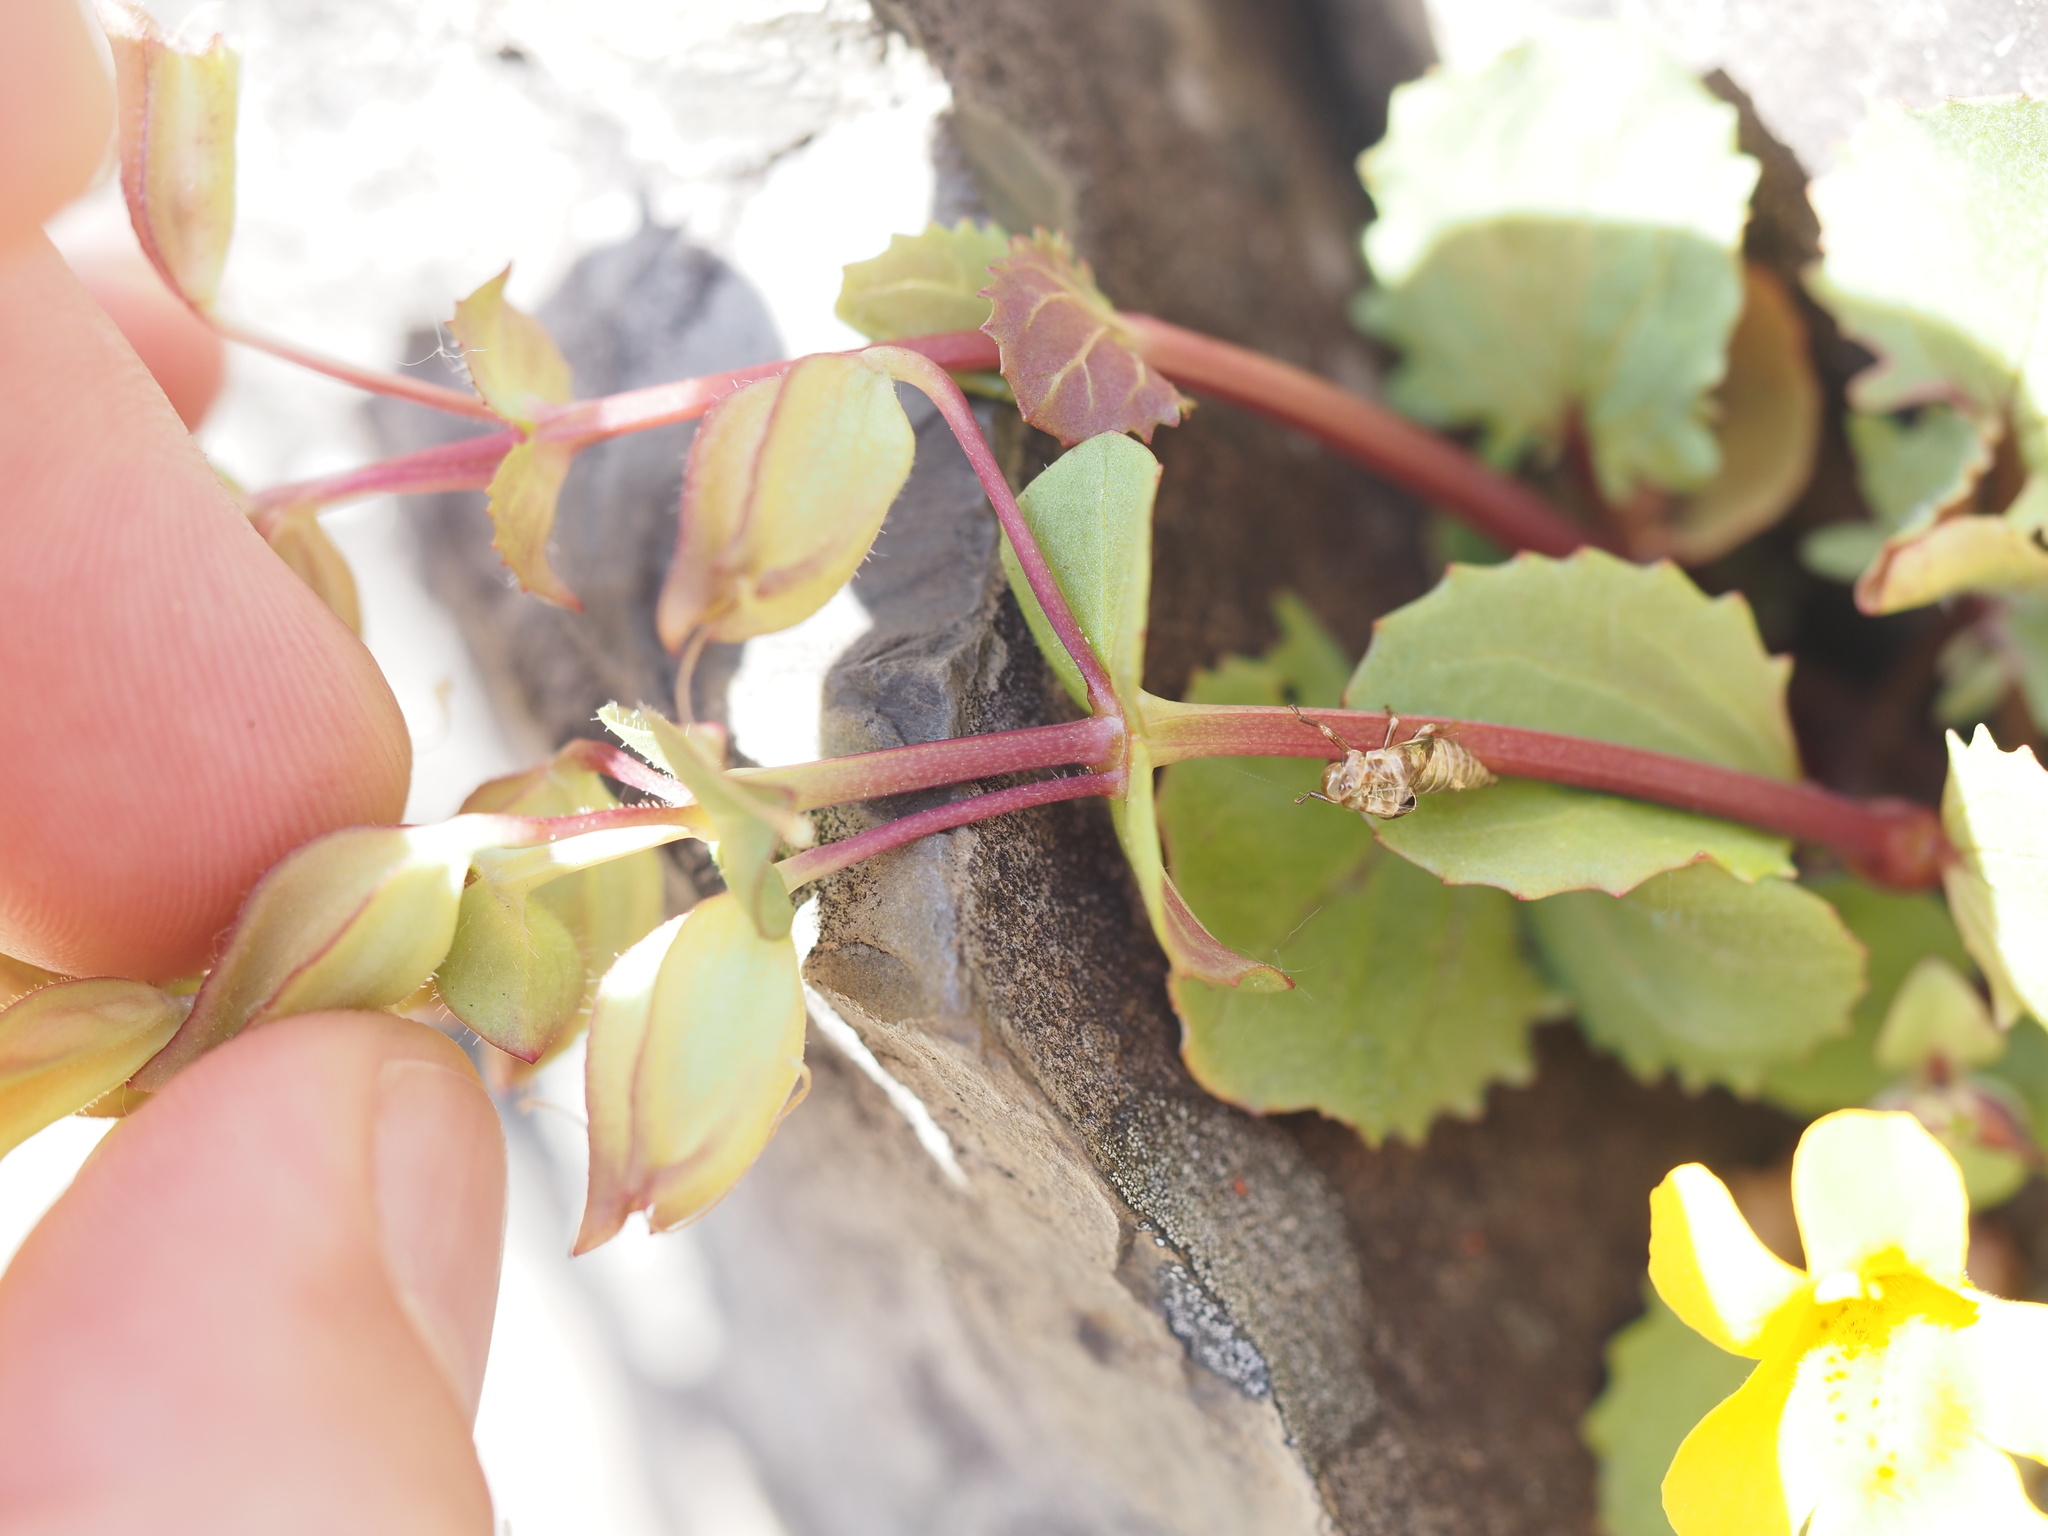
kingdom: Plantae
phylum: Tracheophyta
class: Magnoliopsida
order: Lamiales
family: Phrymaceae
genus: Erythranthe
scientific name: Erythranthe guttata
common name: Monkeyflower
